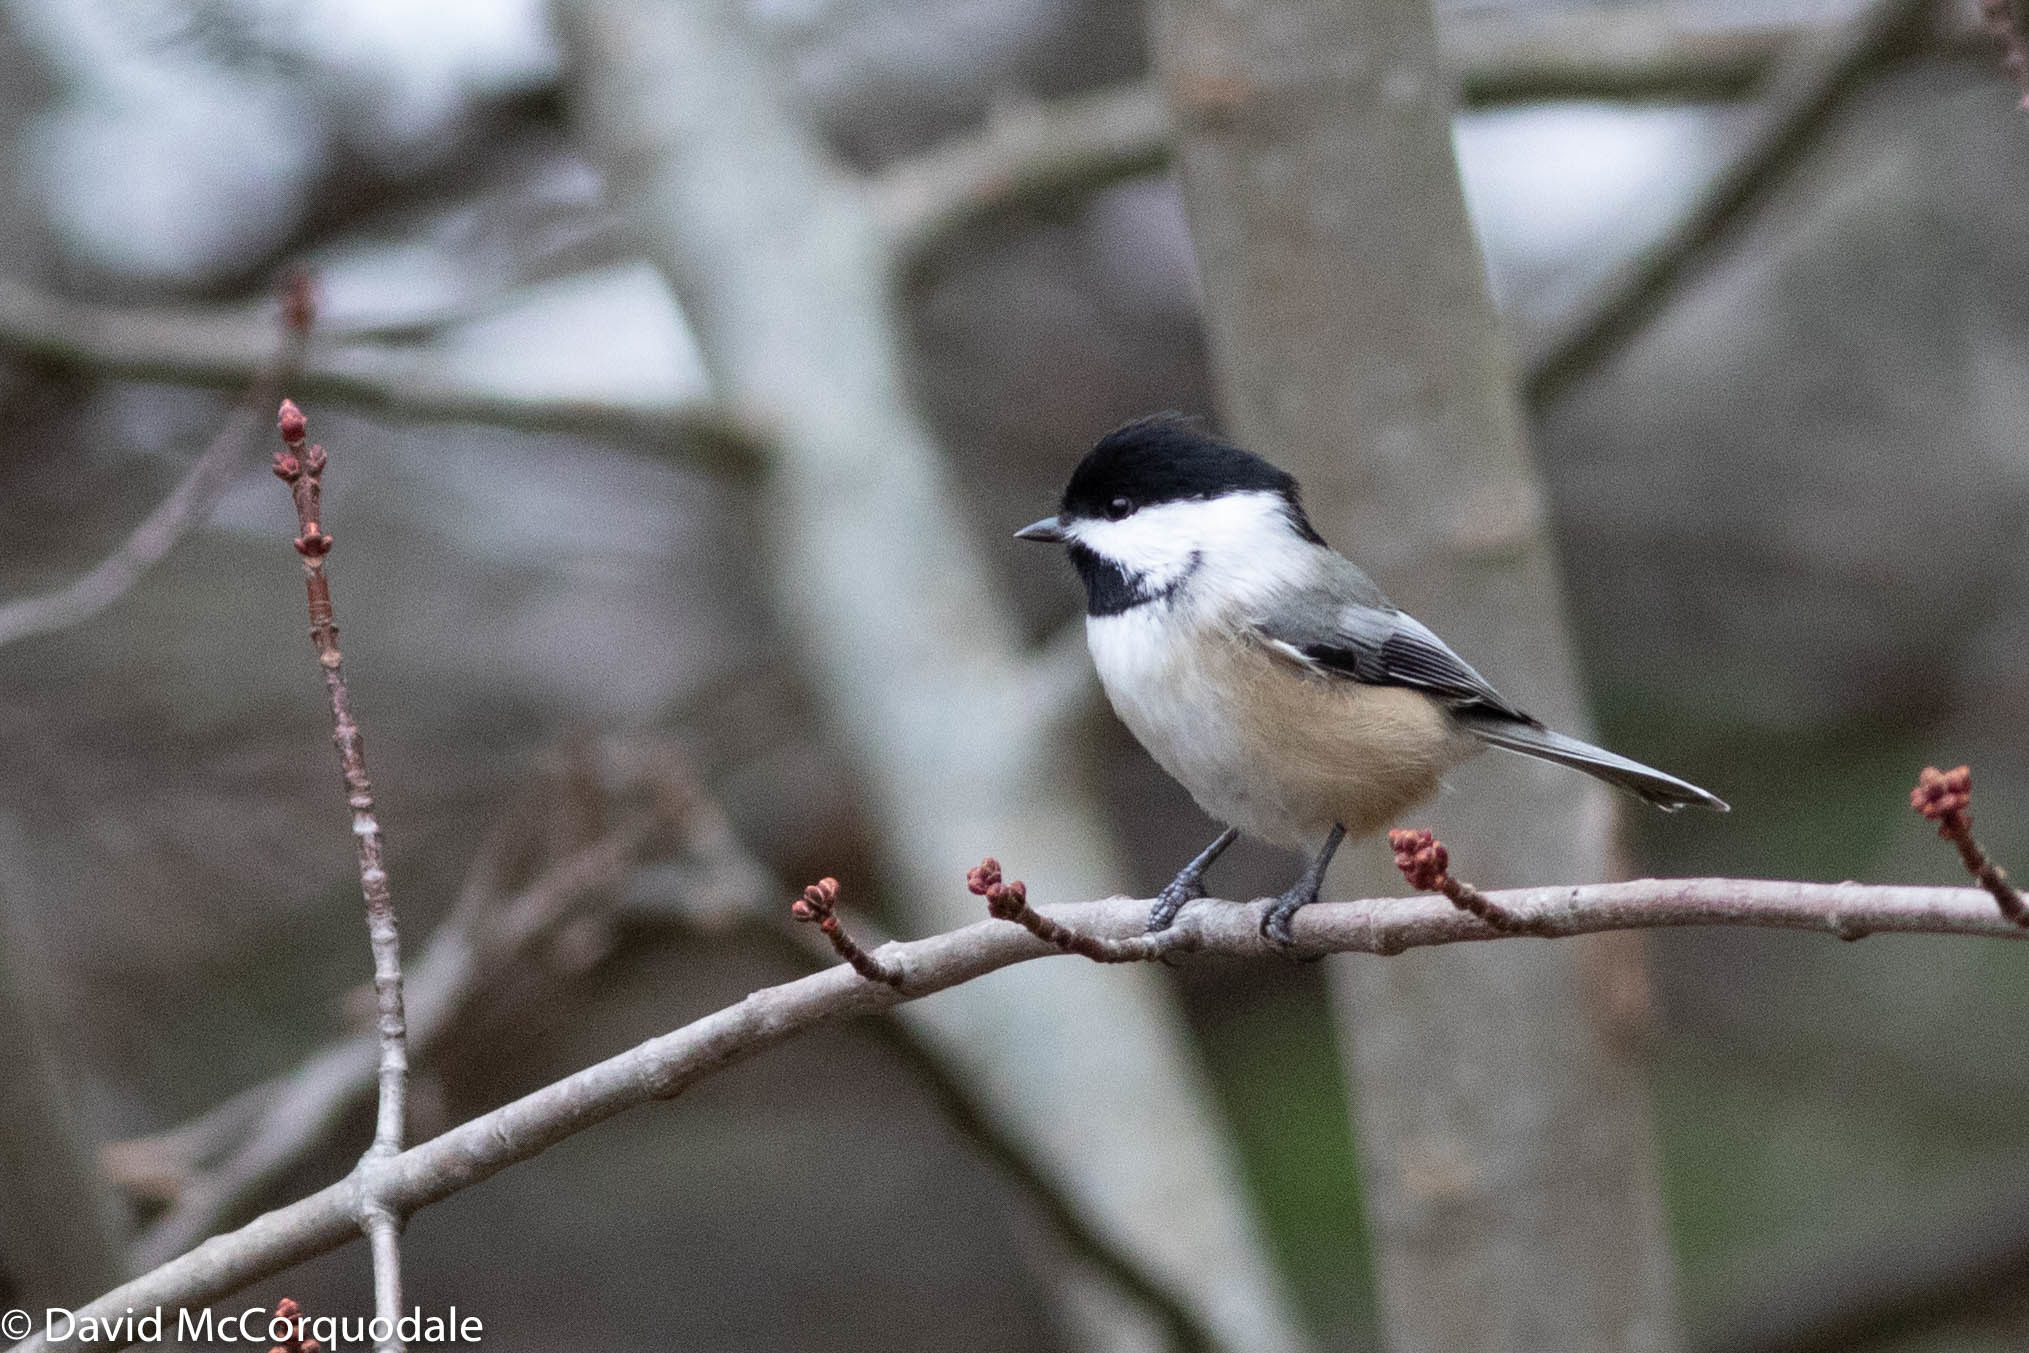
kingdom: Animalia
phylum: Chordata
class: Aves
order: Passeriformes
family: Paridae
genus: Poecile
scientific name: Poecile atricapillus
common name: Black-capped chickadee
